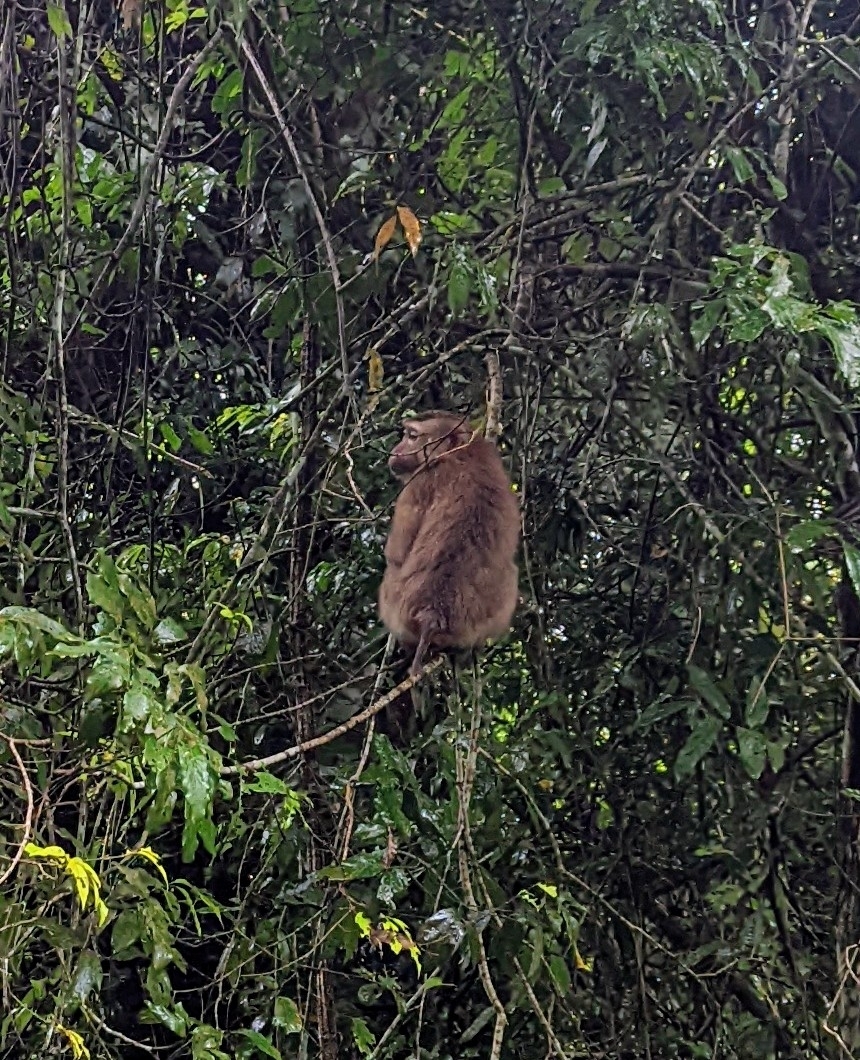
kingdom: Animalia
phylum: Chordata
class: Mammalia
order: Primates
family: Cercopithecidae
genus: Macaca
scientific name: Macaca leonina
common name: Northern pig-tailed macaque
